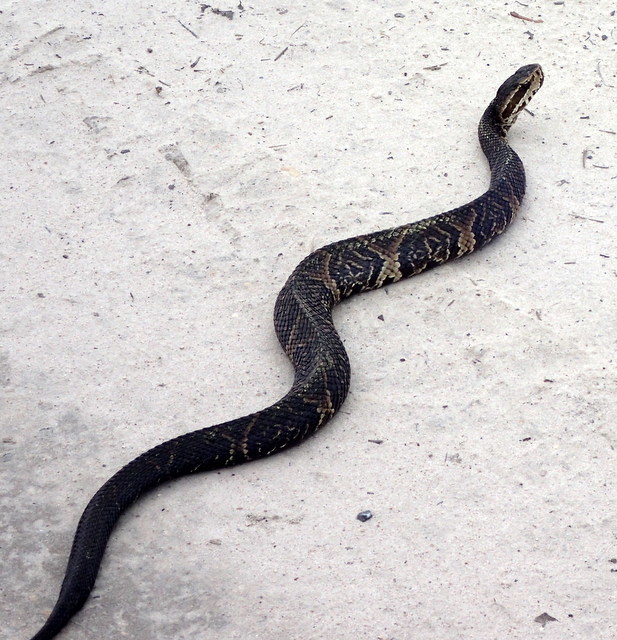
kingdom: Animalia
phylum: Chordata
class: Squamata
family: Viperidae
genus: Agkistrodon
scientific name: Agkistrodon conanti
